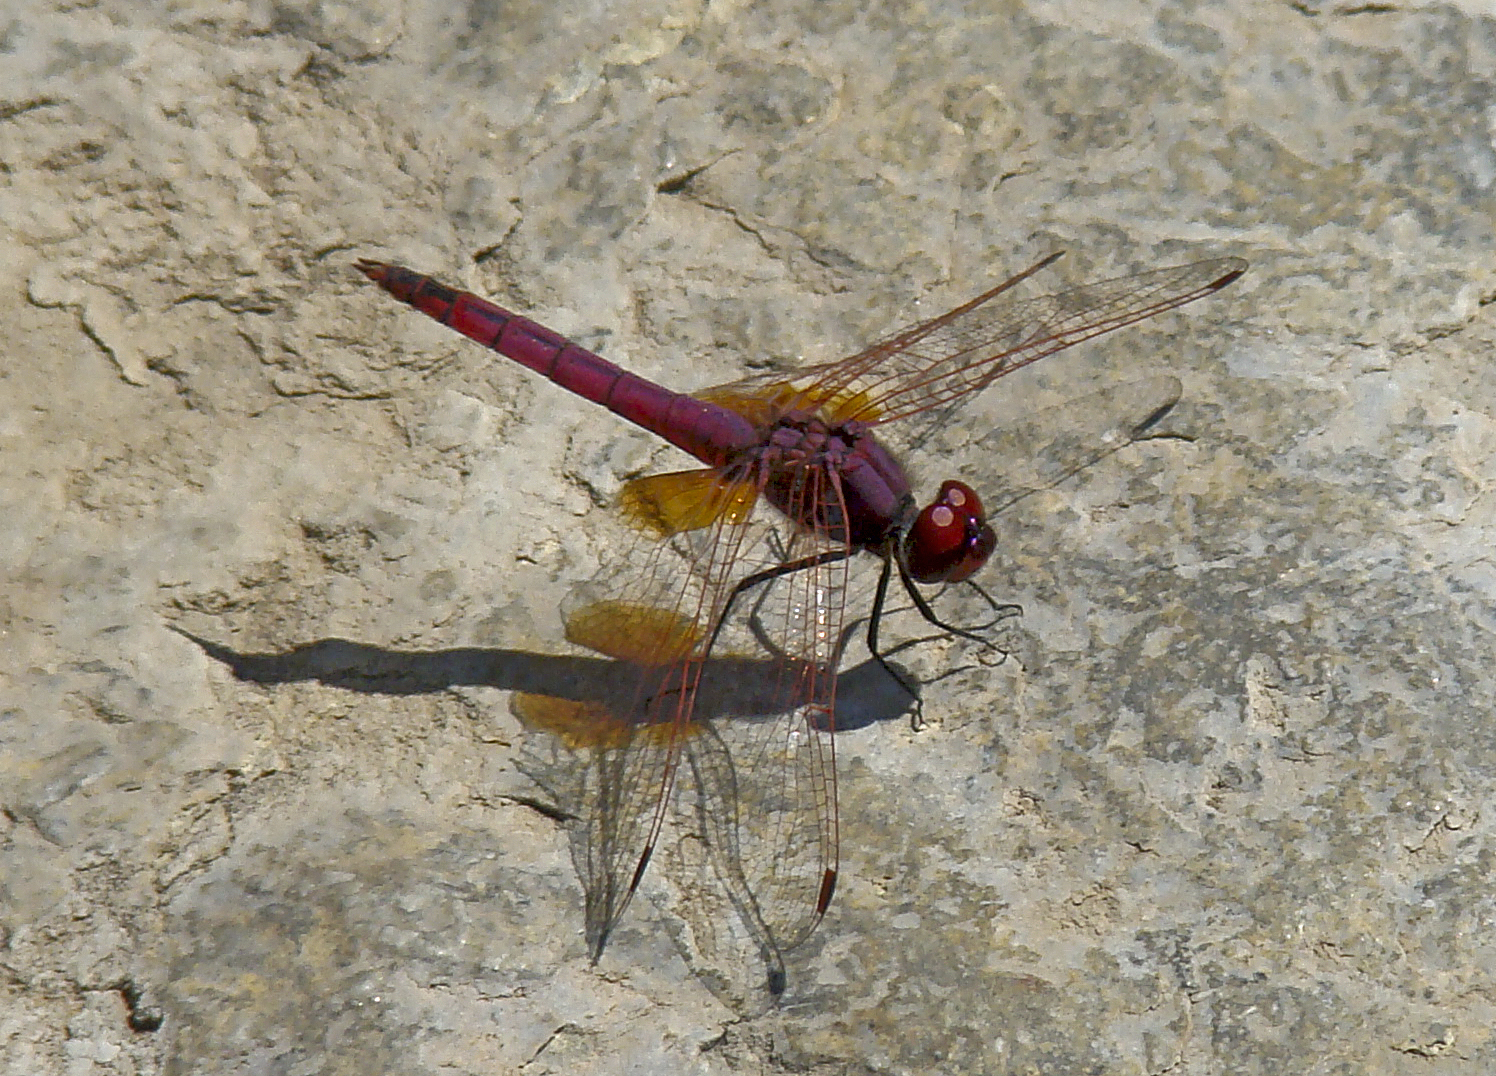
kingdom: Animalia
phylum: Arthropoda
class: Insecta
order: Odonata
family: Libellulidae
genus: Trithemis
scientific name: Trithemis annulata
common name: Violet dropwing
